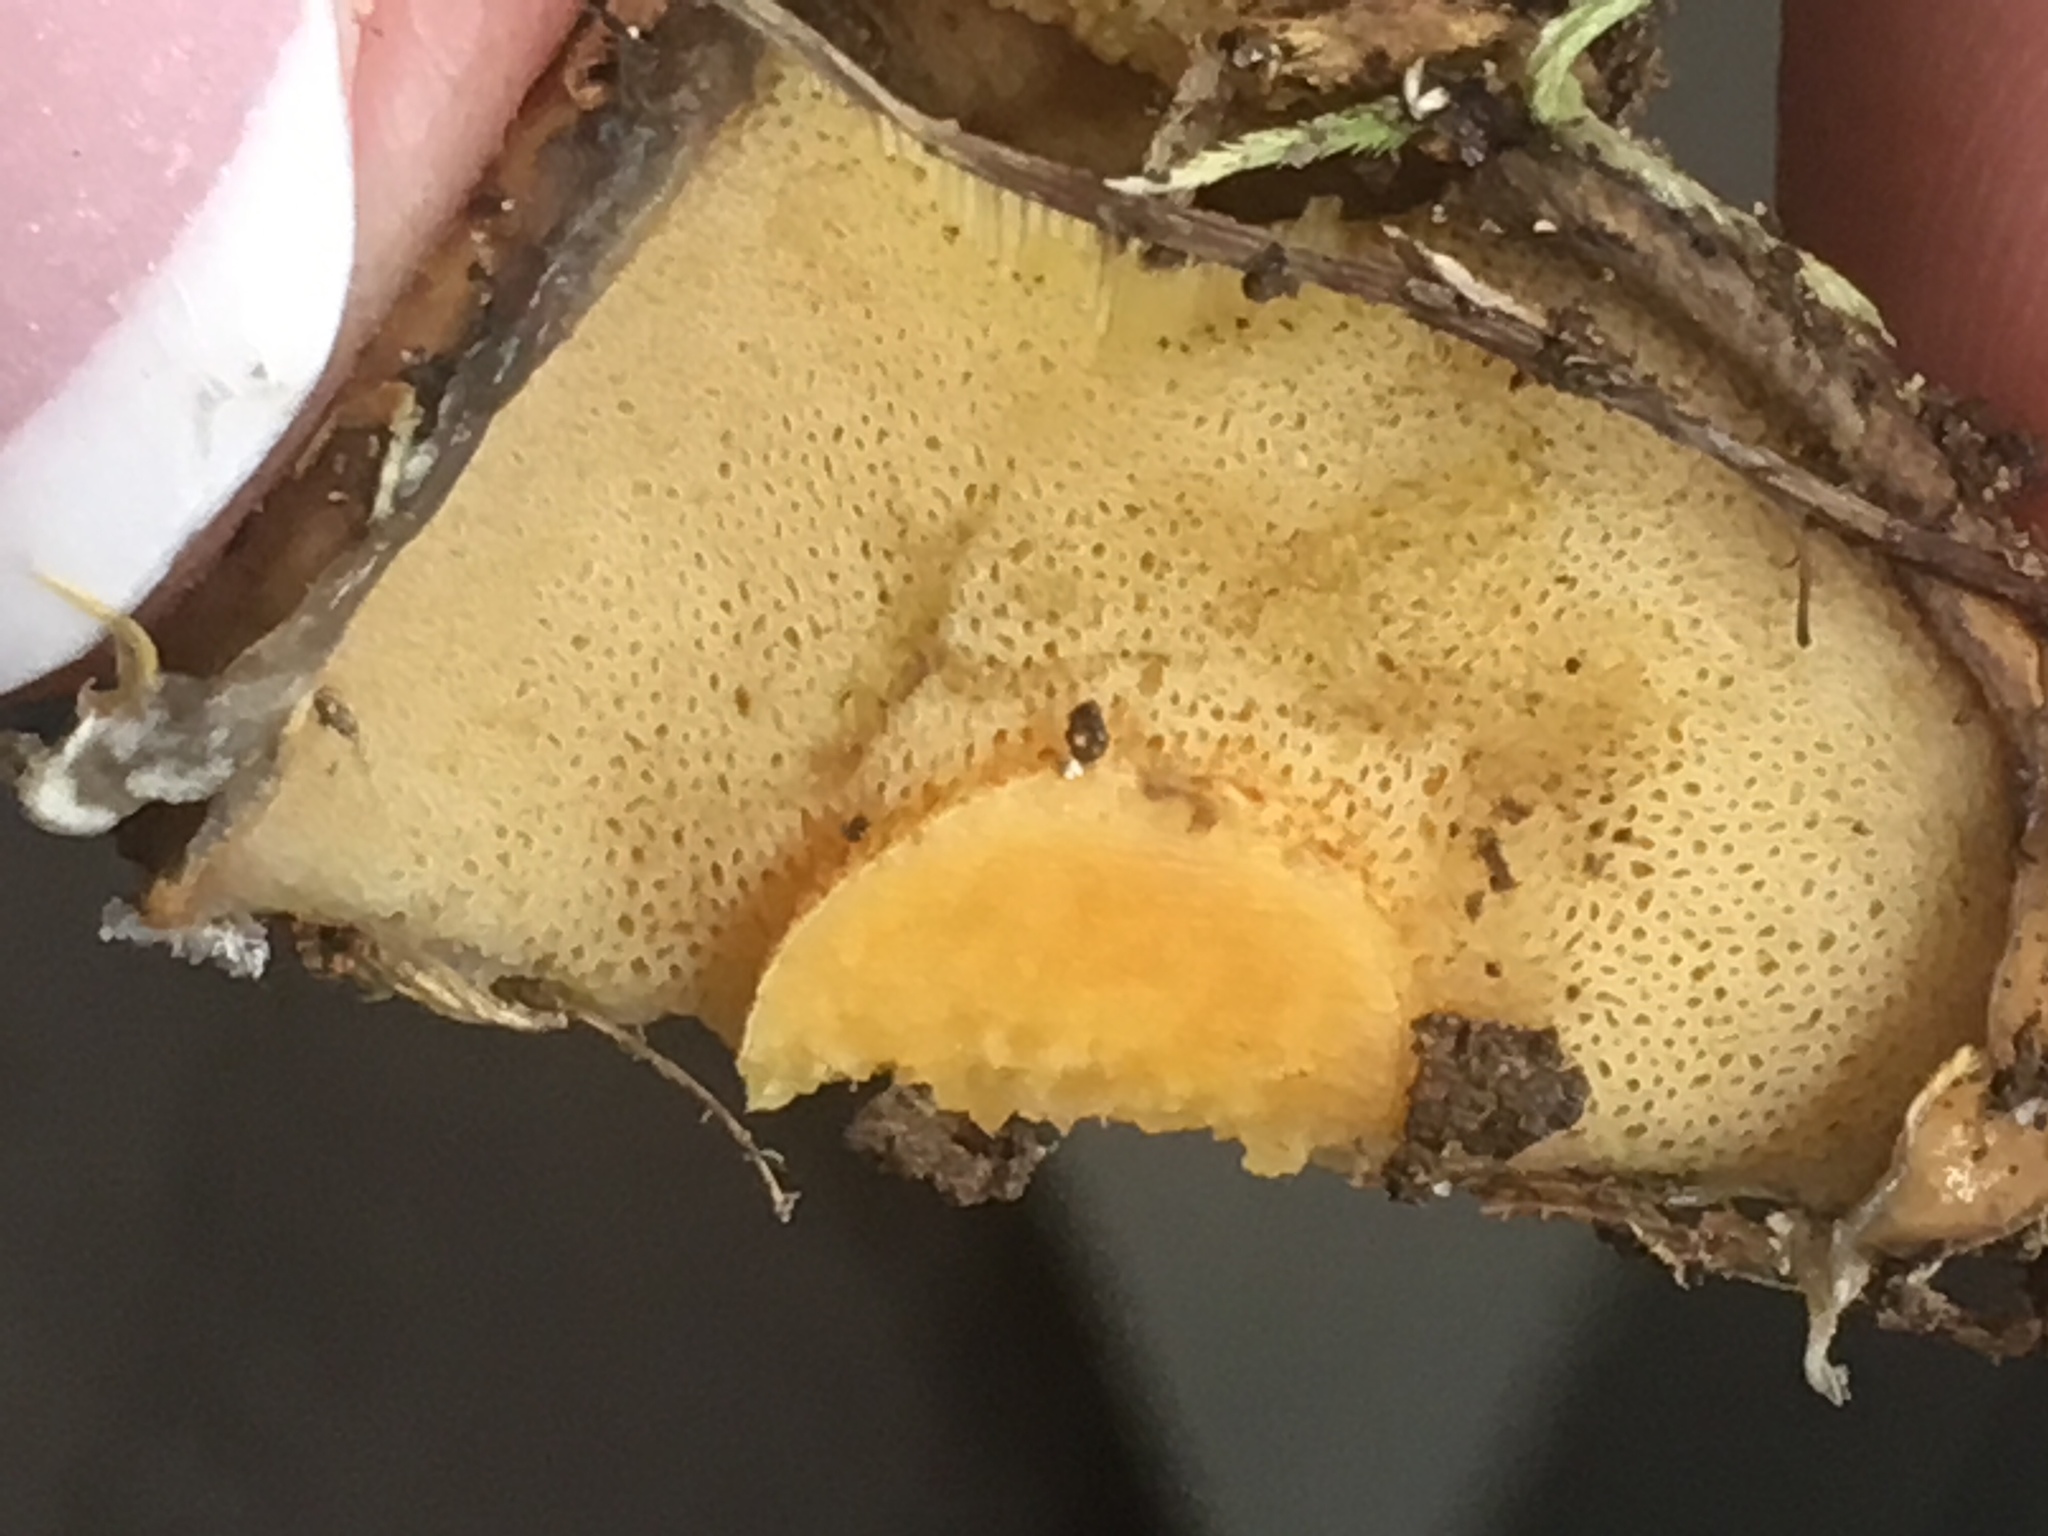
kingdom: Fungi
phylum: Basidiomycota
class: Agaricomycetes
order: Boletales
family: Suillaceae
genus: Suillus
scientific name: Suillus salmonicolor
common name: Slippery jill
